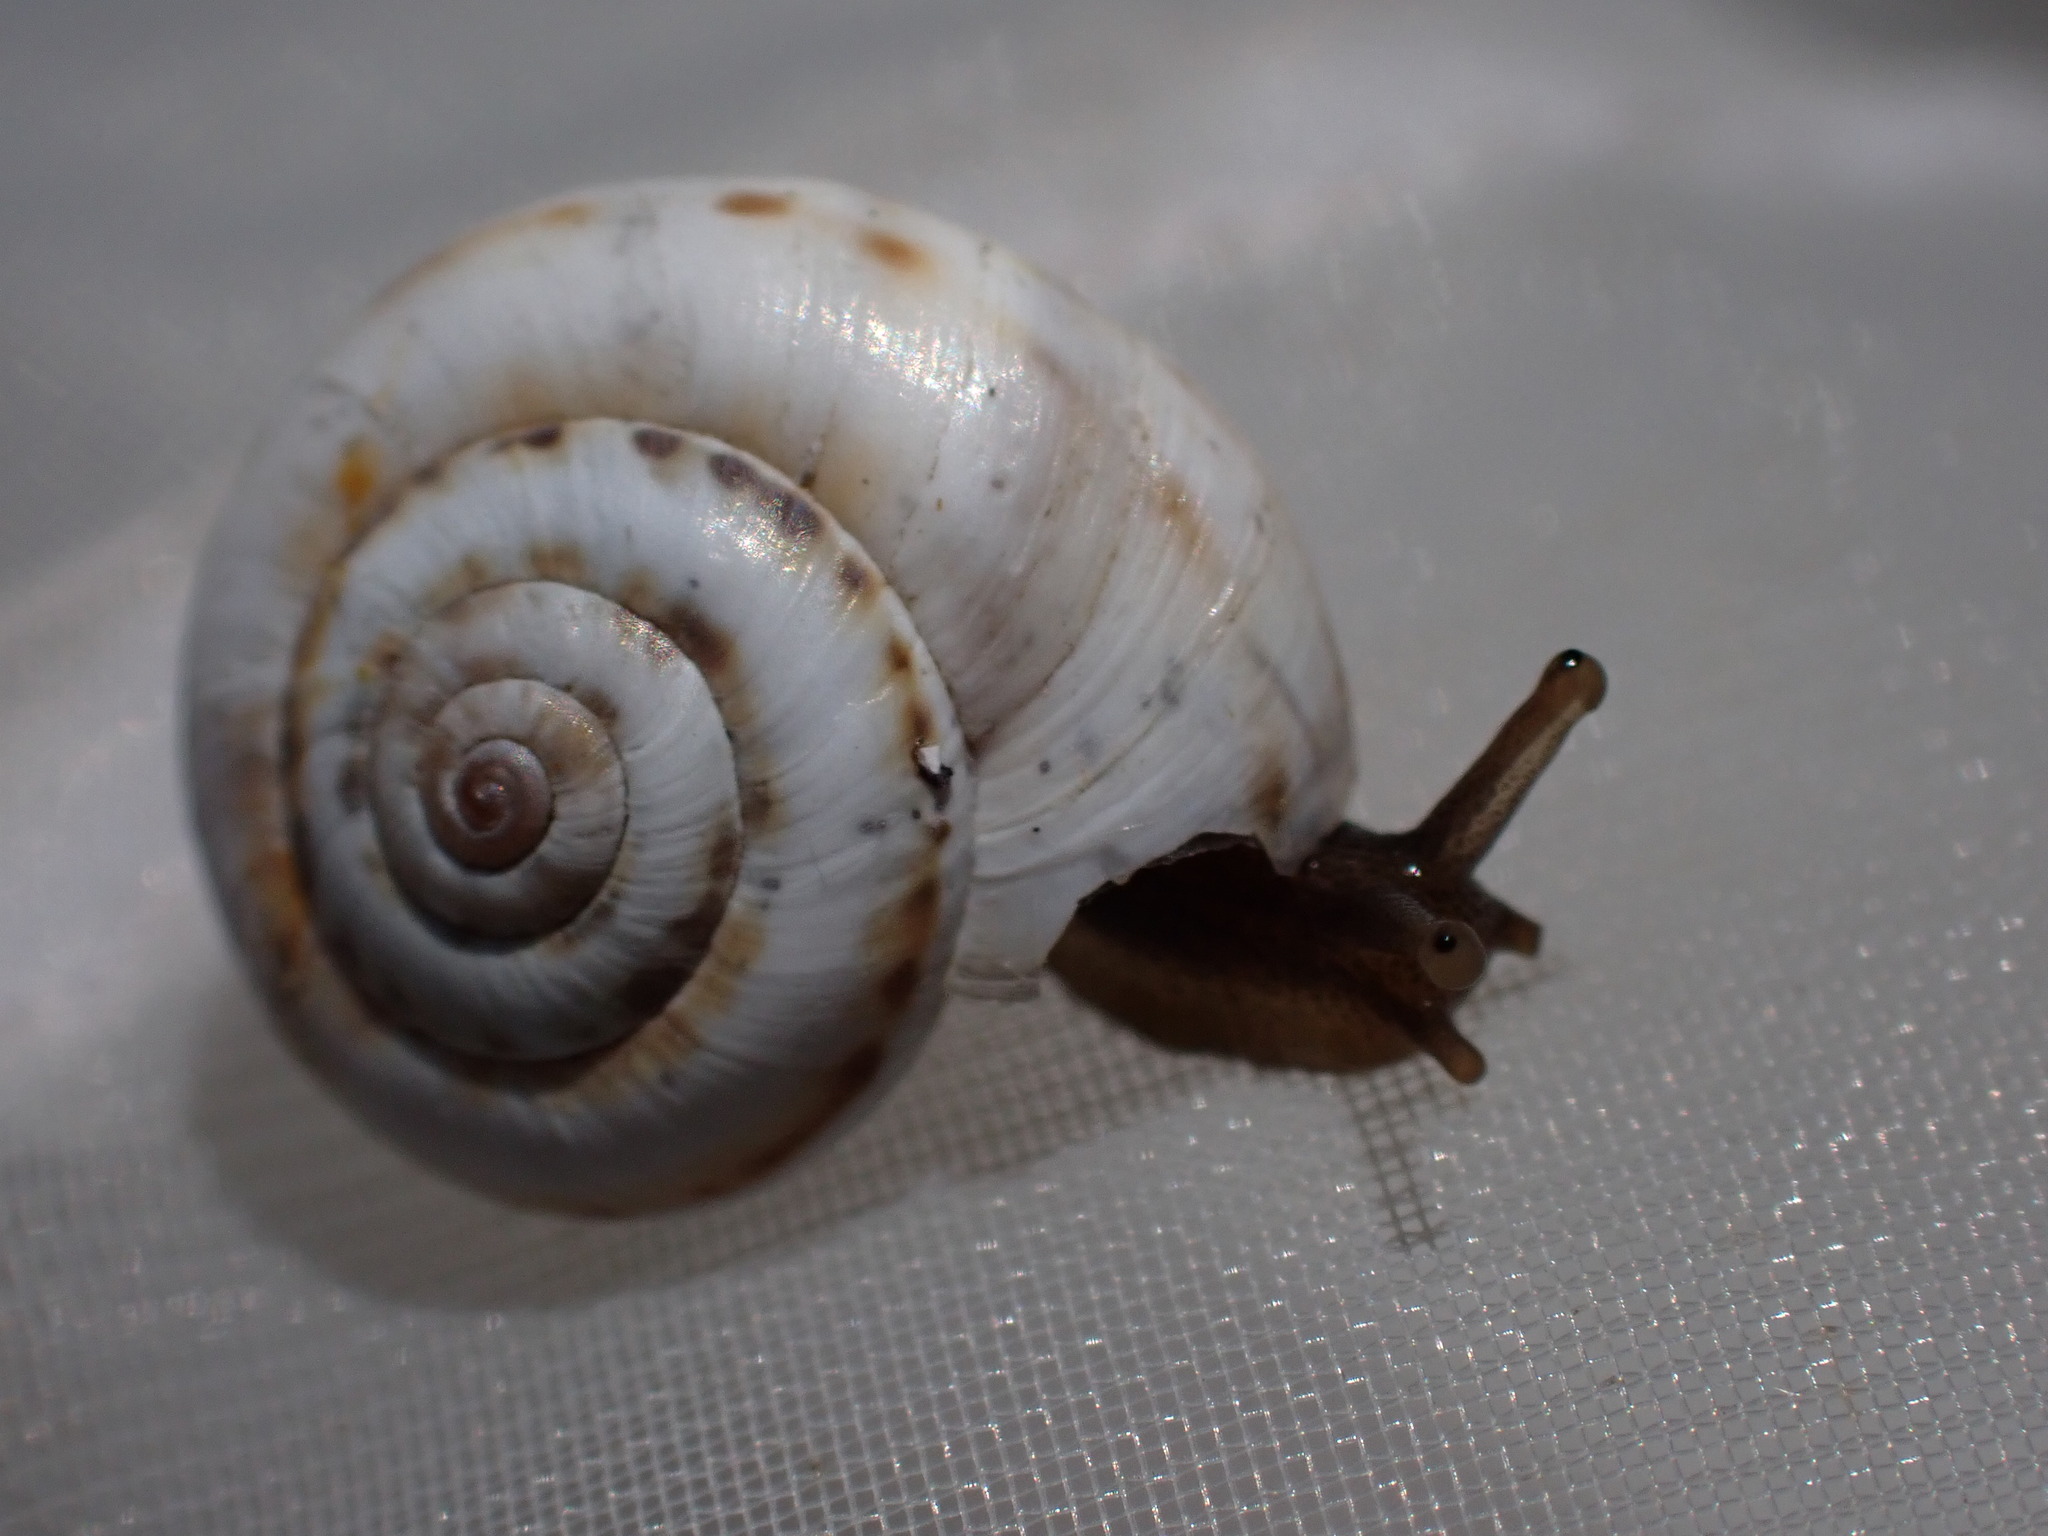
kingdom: Animalia
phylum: Mollusca
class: Gastropoda
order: Stylommatophora
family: Geomitridae
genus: Xeropicta
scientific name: Xeropicta derbentina
